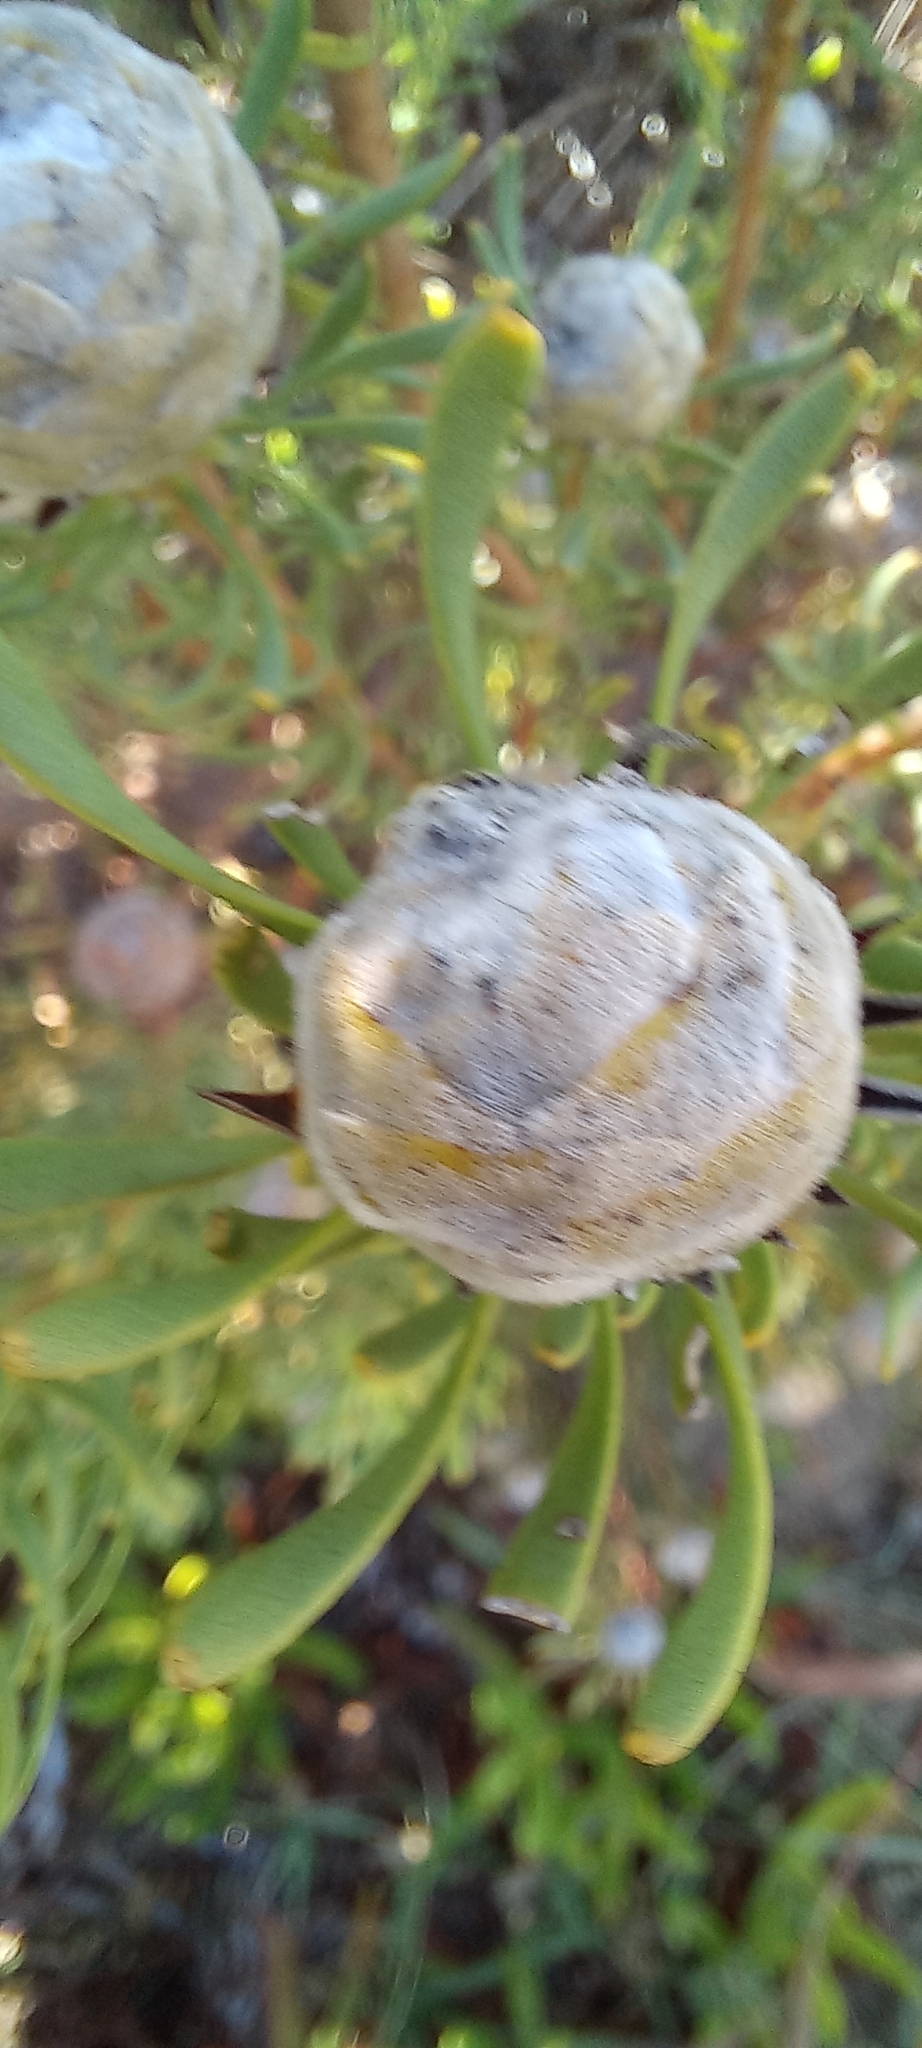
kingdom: Plantae
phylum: Tracheophyta
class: Magnoliopsida
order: Proteales
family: Proteaceae
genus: Leucadendron
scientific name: Leucadendron linifolium
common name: Line-leaf conebush
